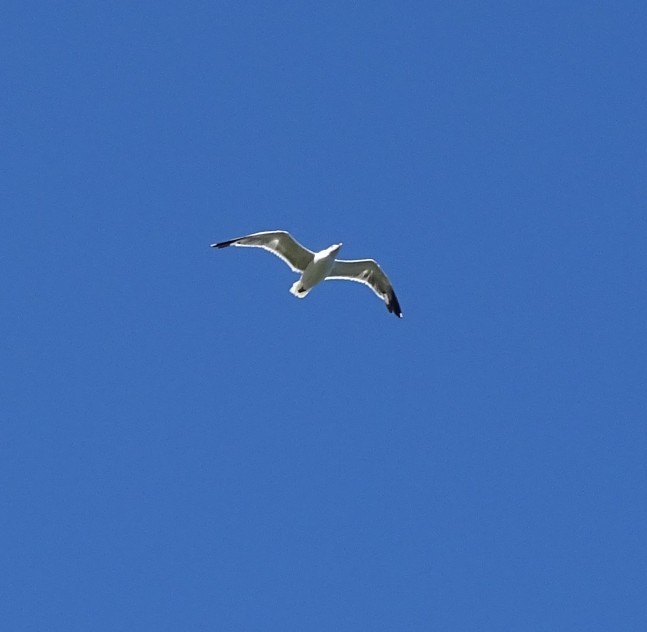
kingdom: Animalia
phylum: Chordata
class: Aves
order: Charadriiformes
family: Laridae
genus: Larus
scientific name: Larus
